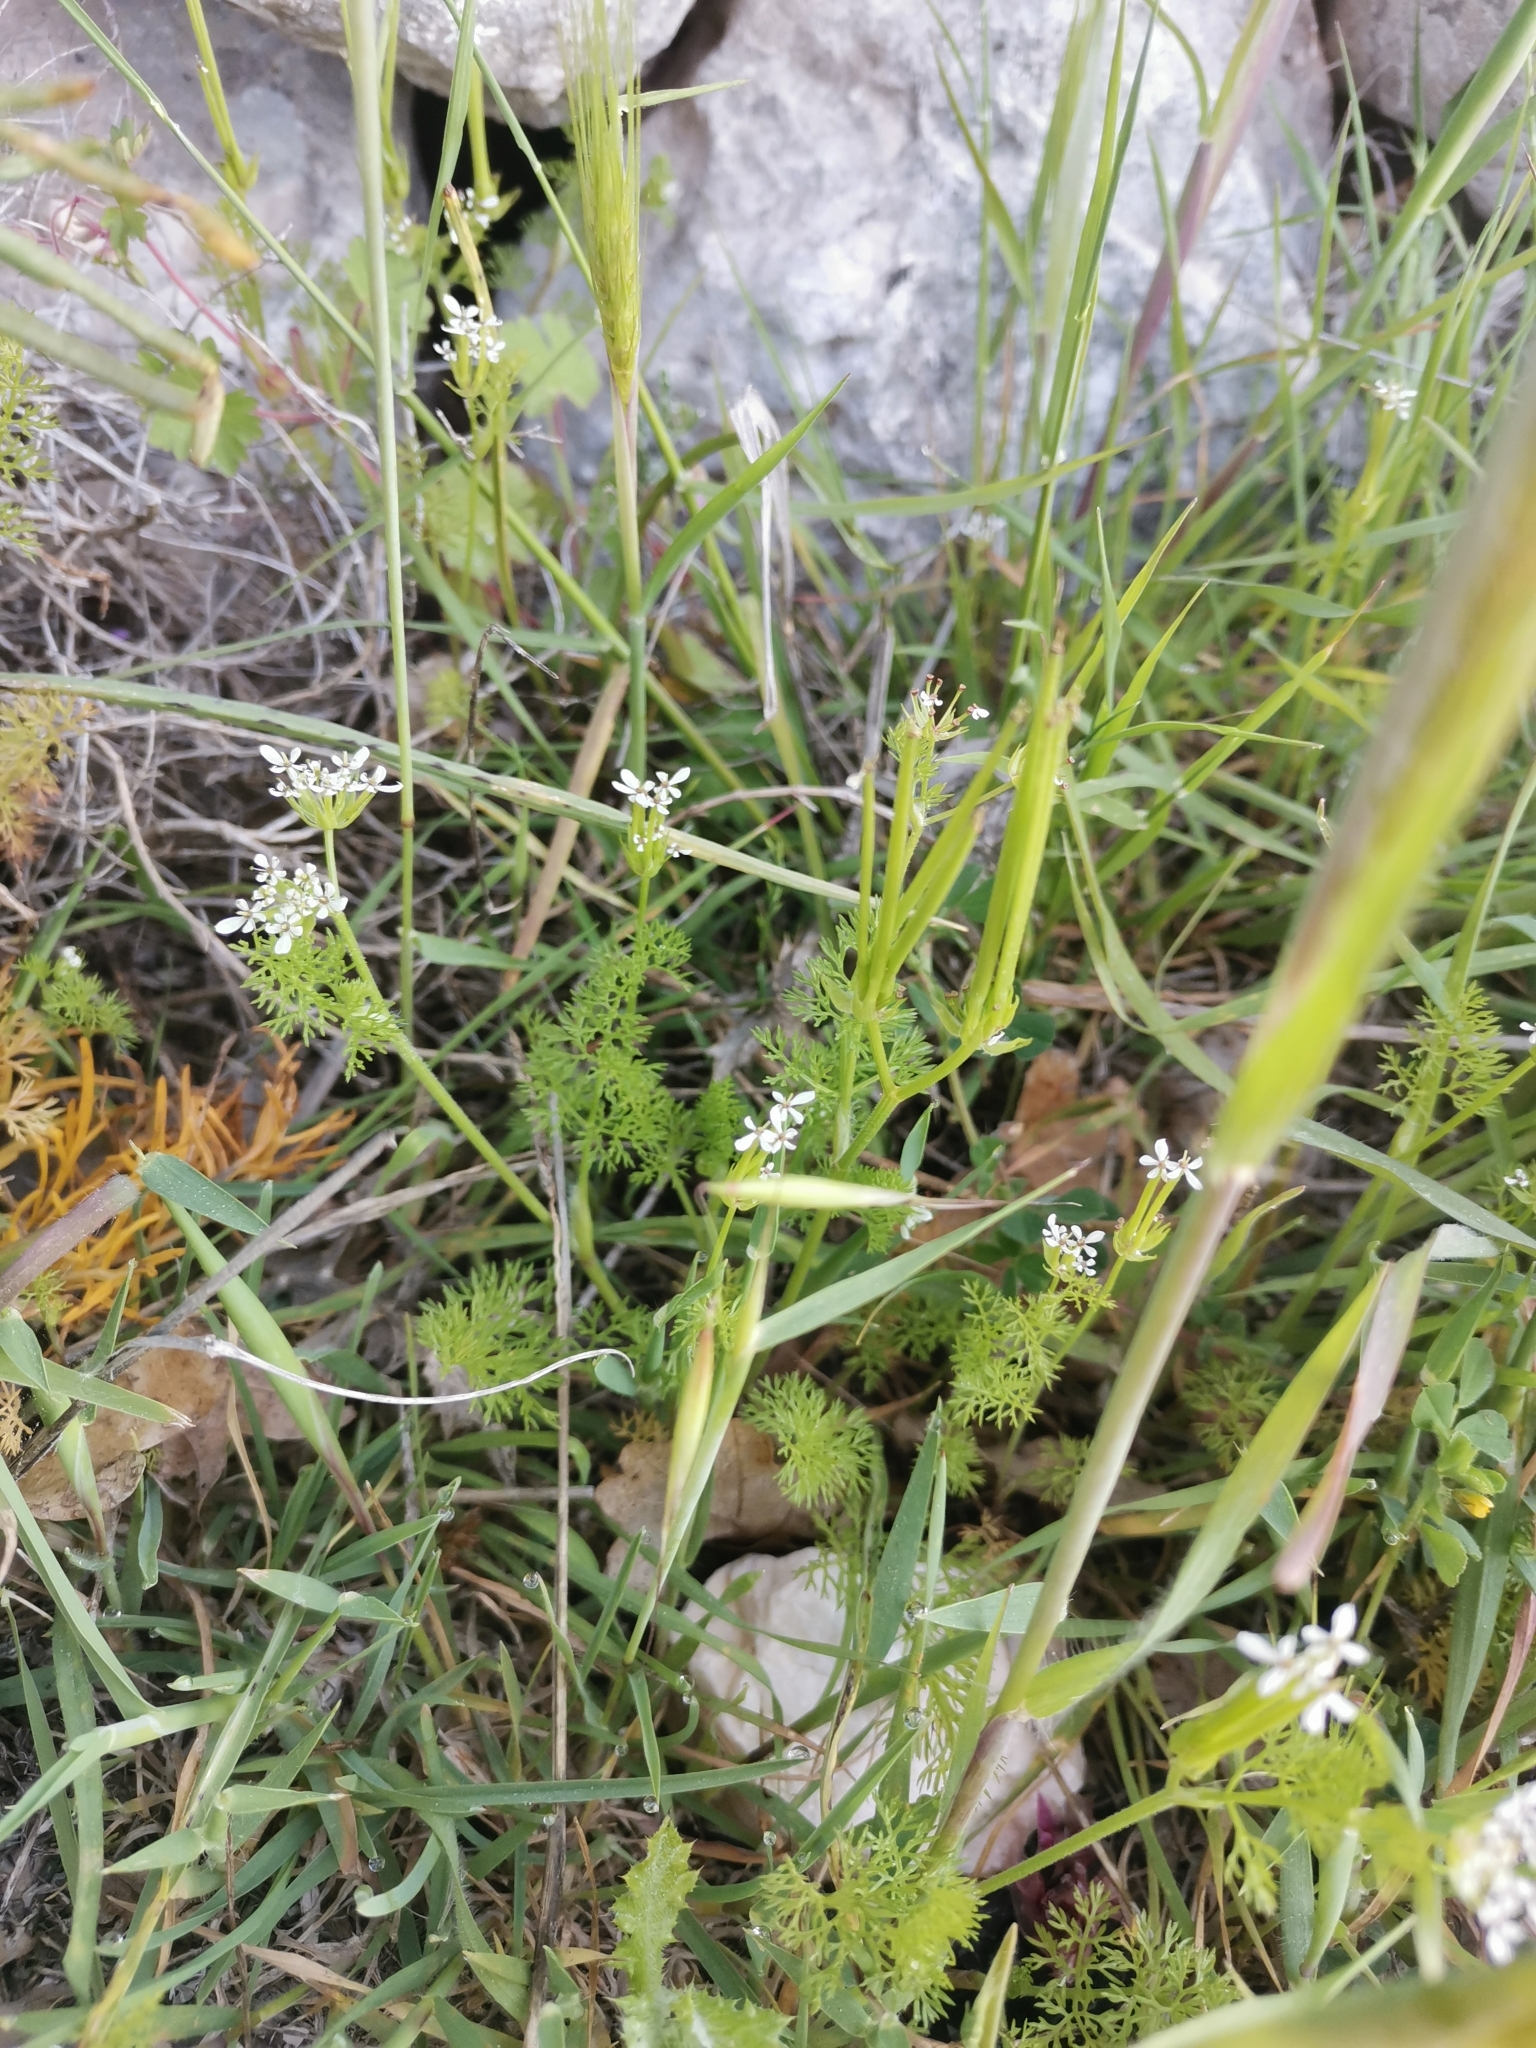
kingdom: Plantae
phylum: Tracheophyta
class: Magnoliopsida
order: Apiales
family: Apiaceae
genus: Scandix
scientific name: Scandix pecten-veneris
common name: Shepherd's-needle
